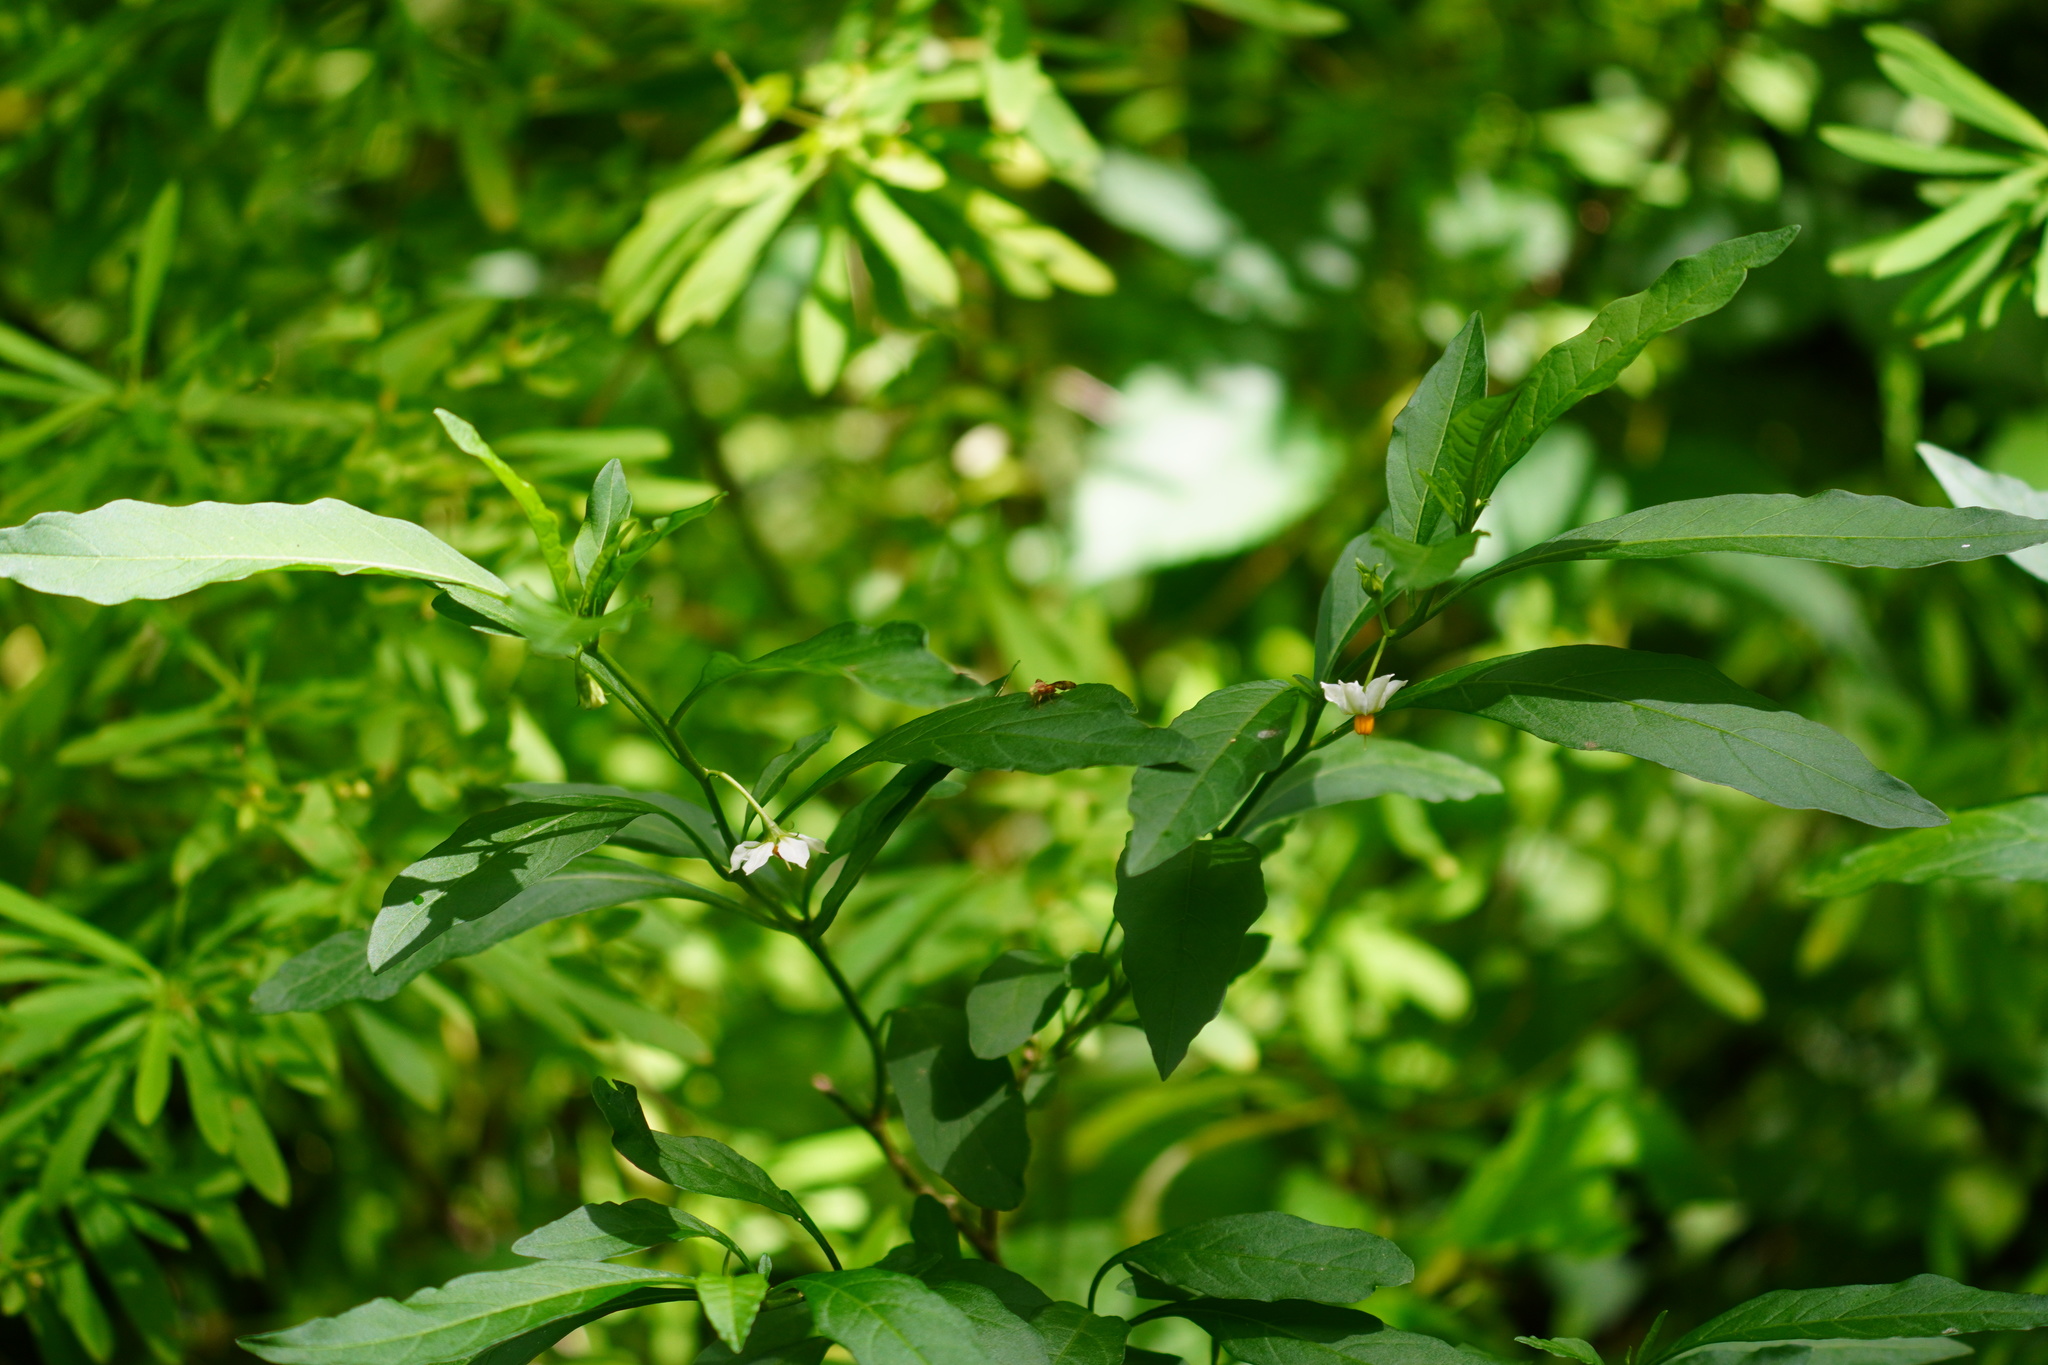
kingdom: Plantae
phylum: Tracheophyta
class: Magnoliopsida
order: Solanales
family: Solanaceae
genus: Solanum
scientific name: Solanum pseudocapsicum
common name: Jerusalem cherry
